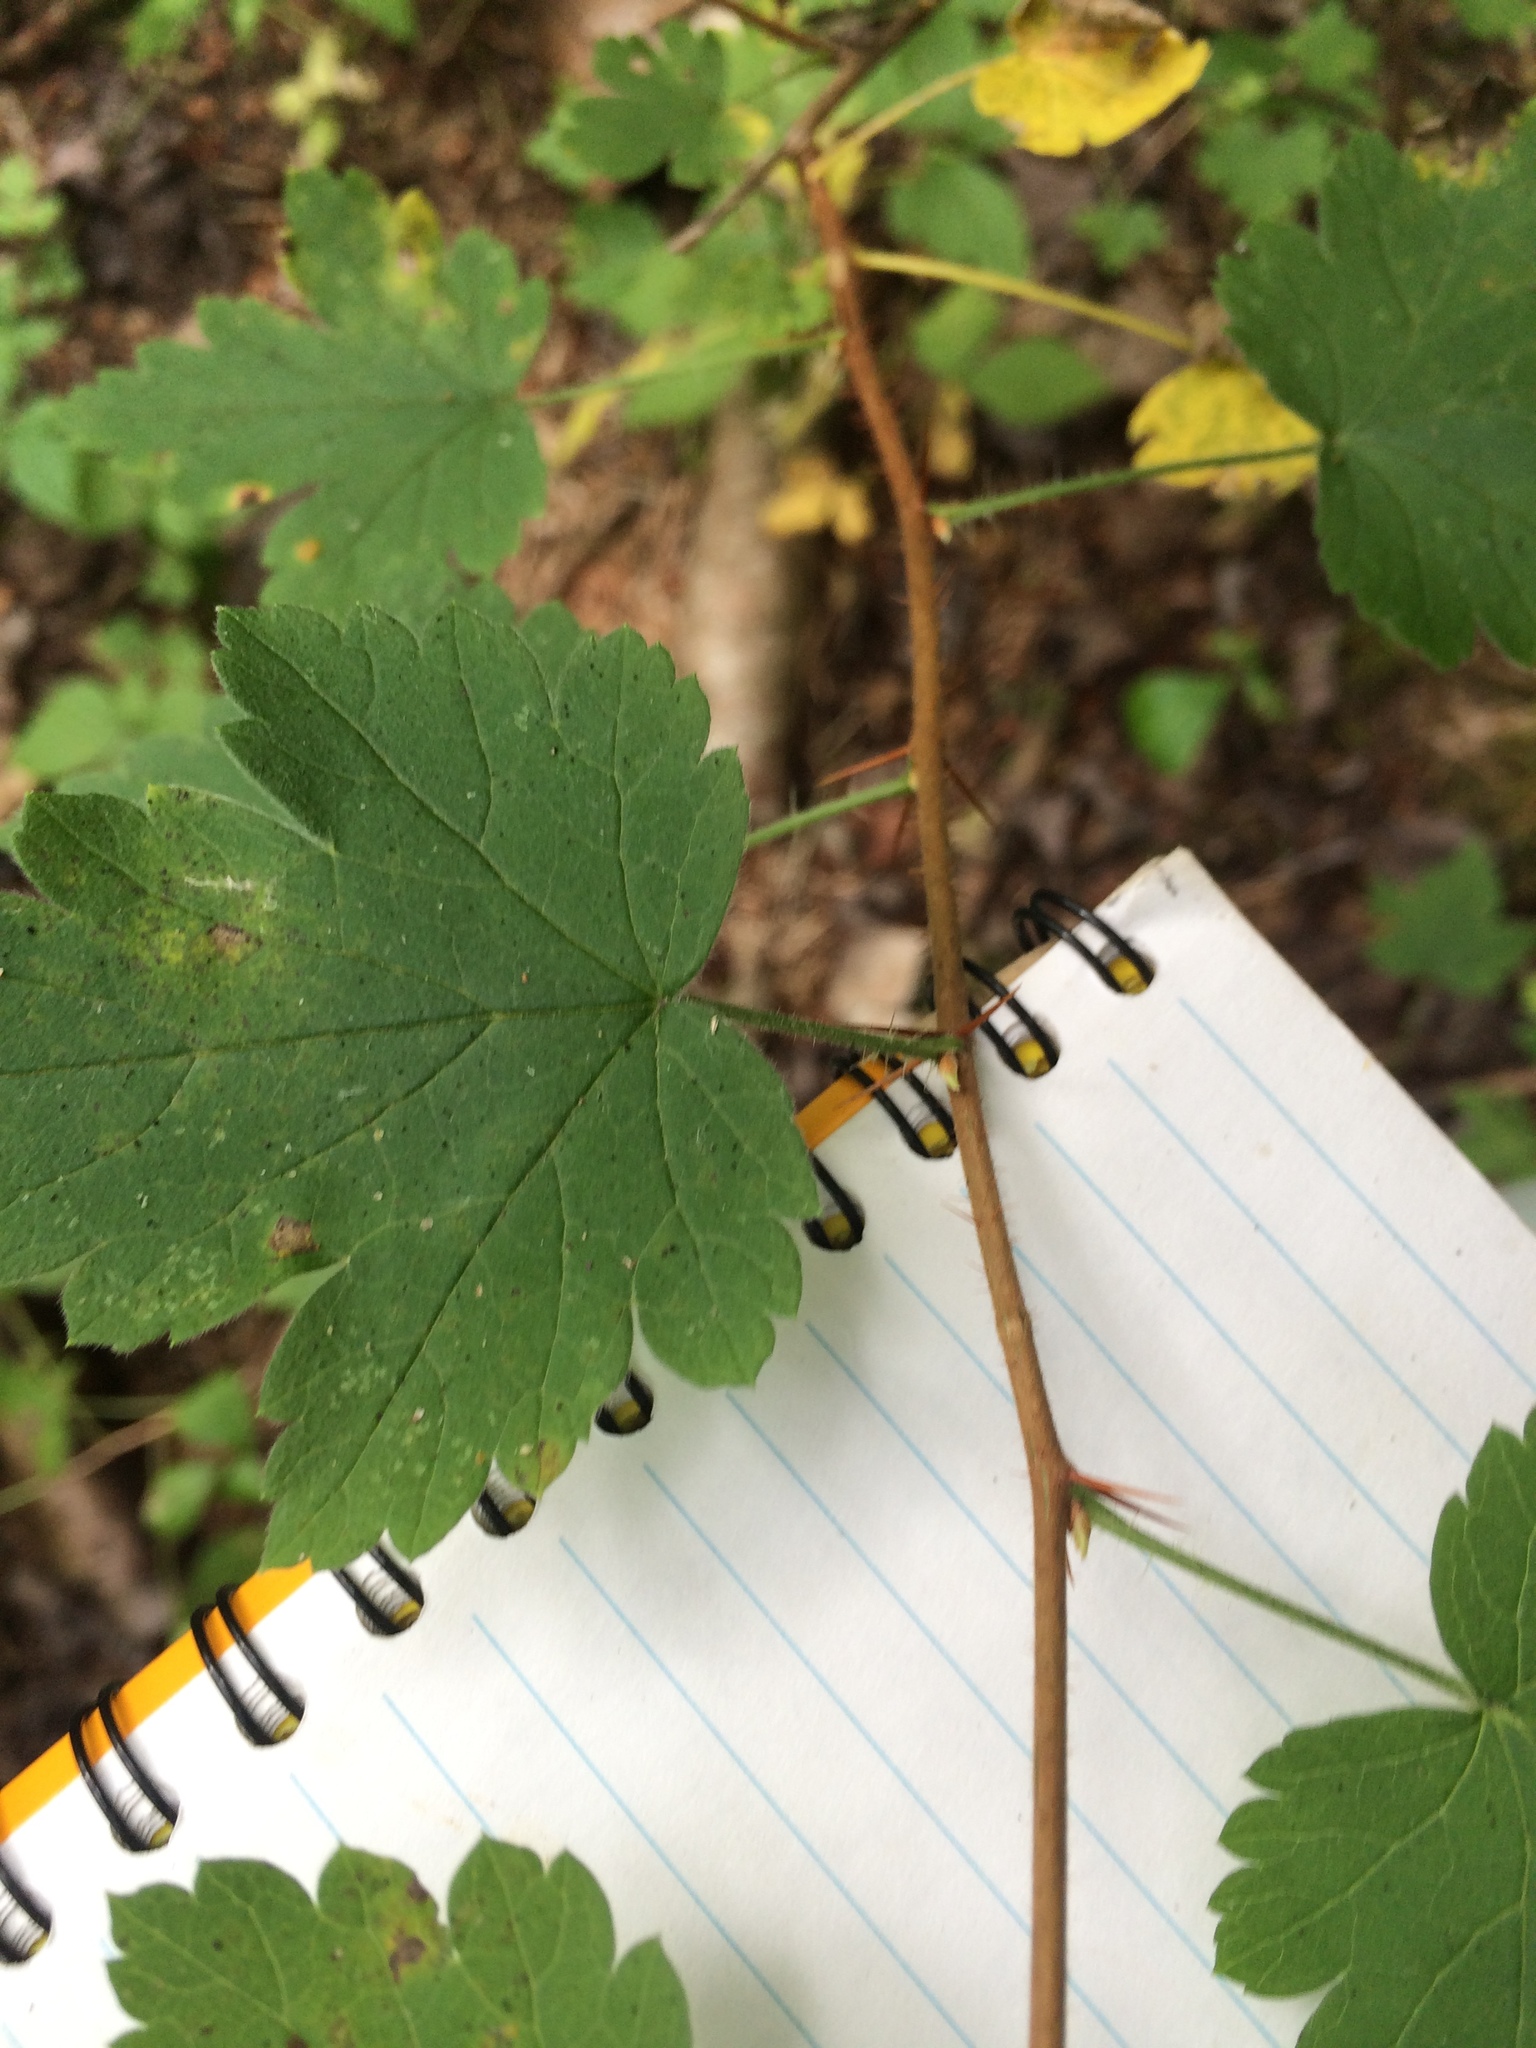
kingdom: Plantae
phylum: Tracheophyta
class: Magnoliopsida
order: Saxifragales
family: Grossulariaceae
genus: Ribes
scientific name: Ribes cynosbati
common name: American gooseberry
